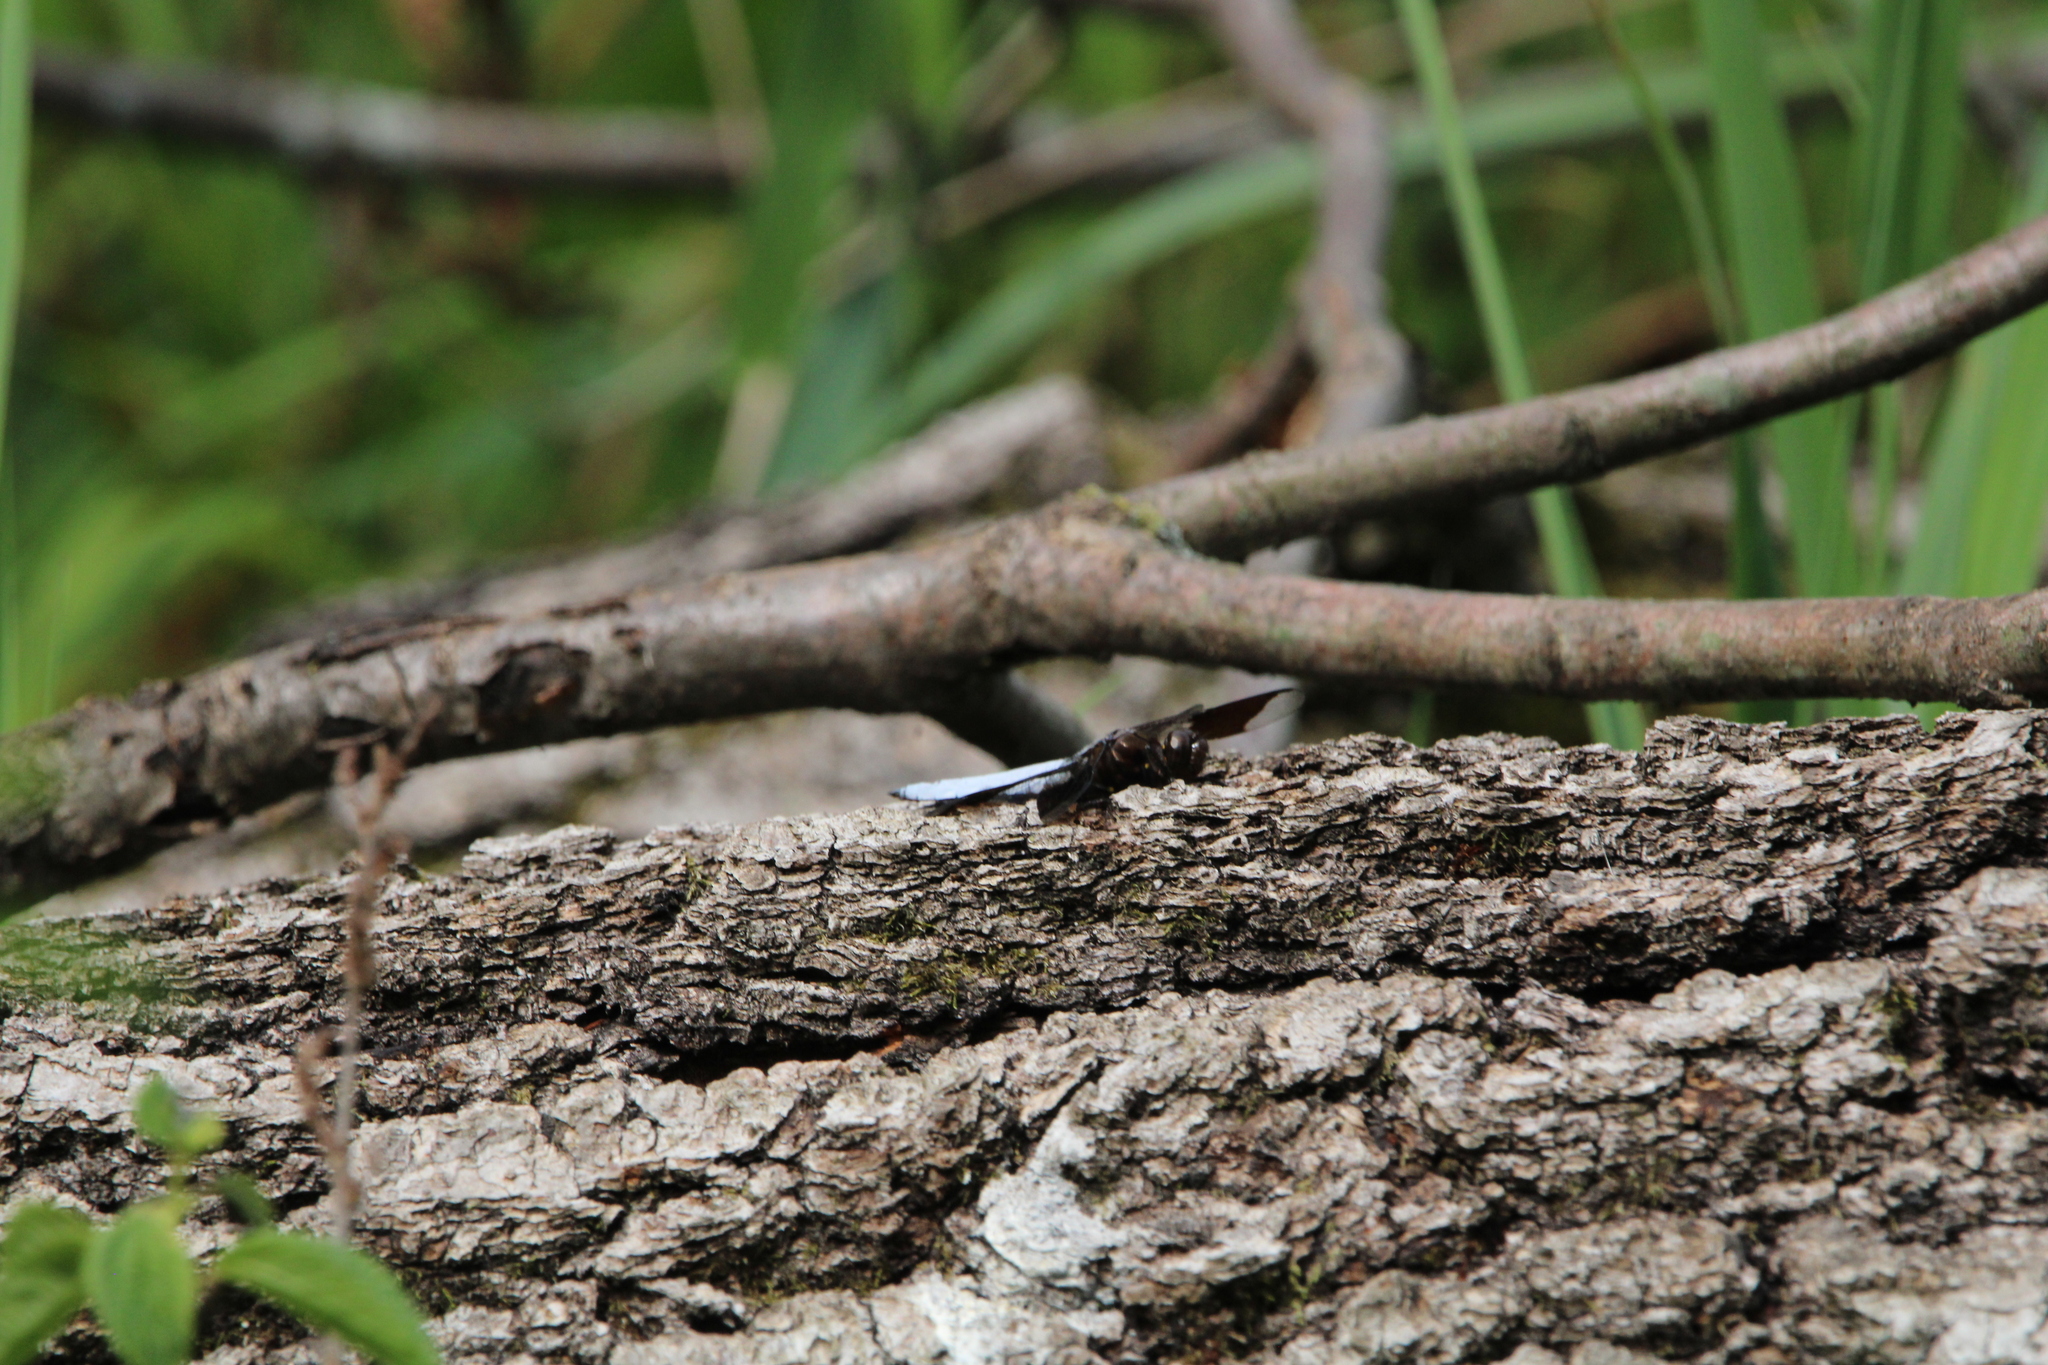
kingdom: Animalia
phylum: Arthropoda
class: Insecta
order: Odonata
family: Libellulidae
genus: Plathemis
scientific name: Plathemis lydia
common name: Common whitetail
